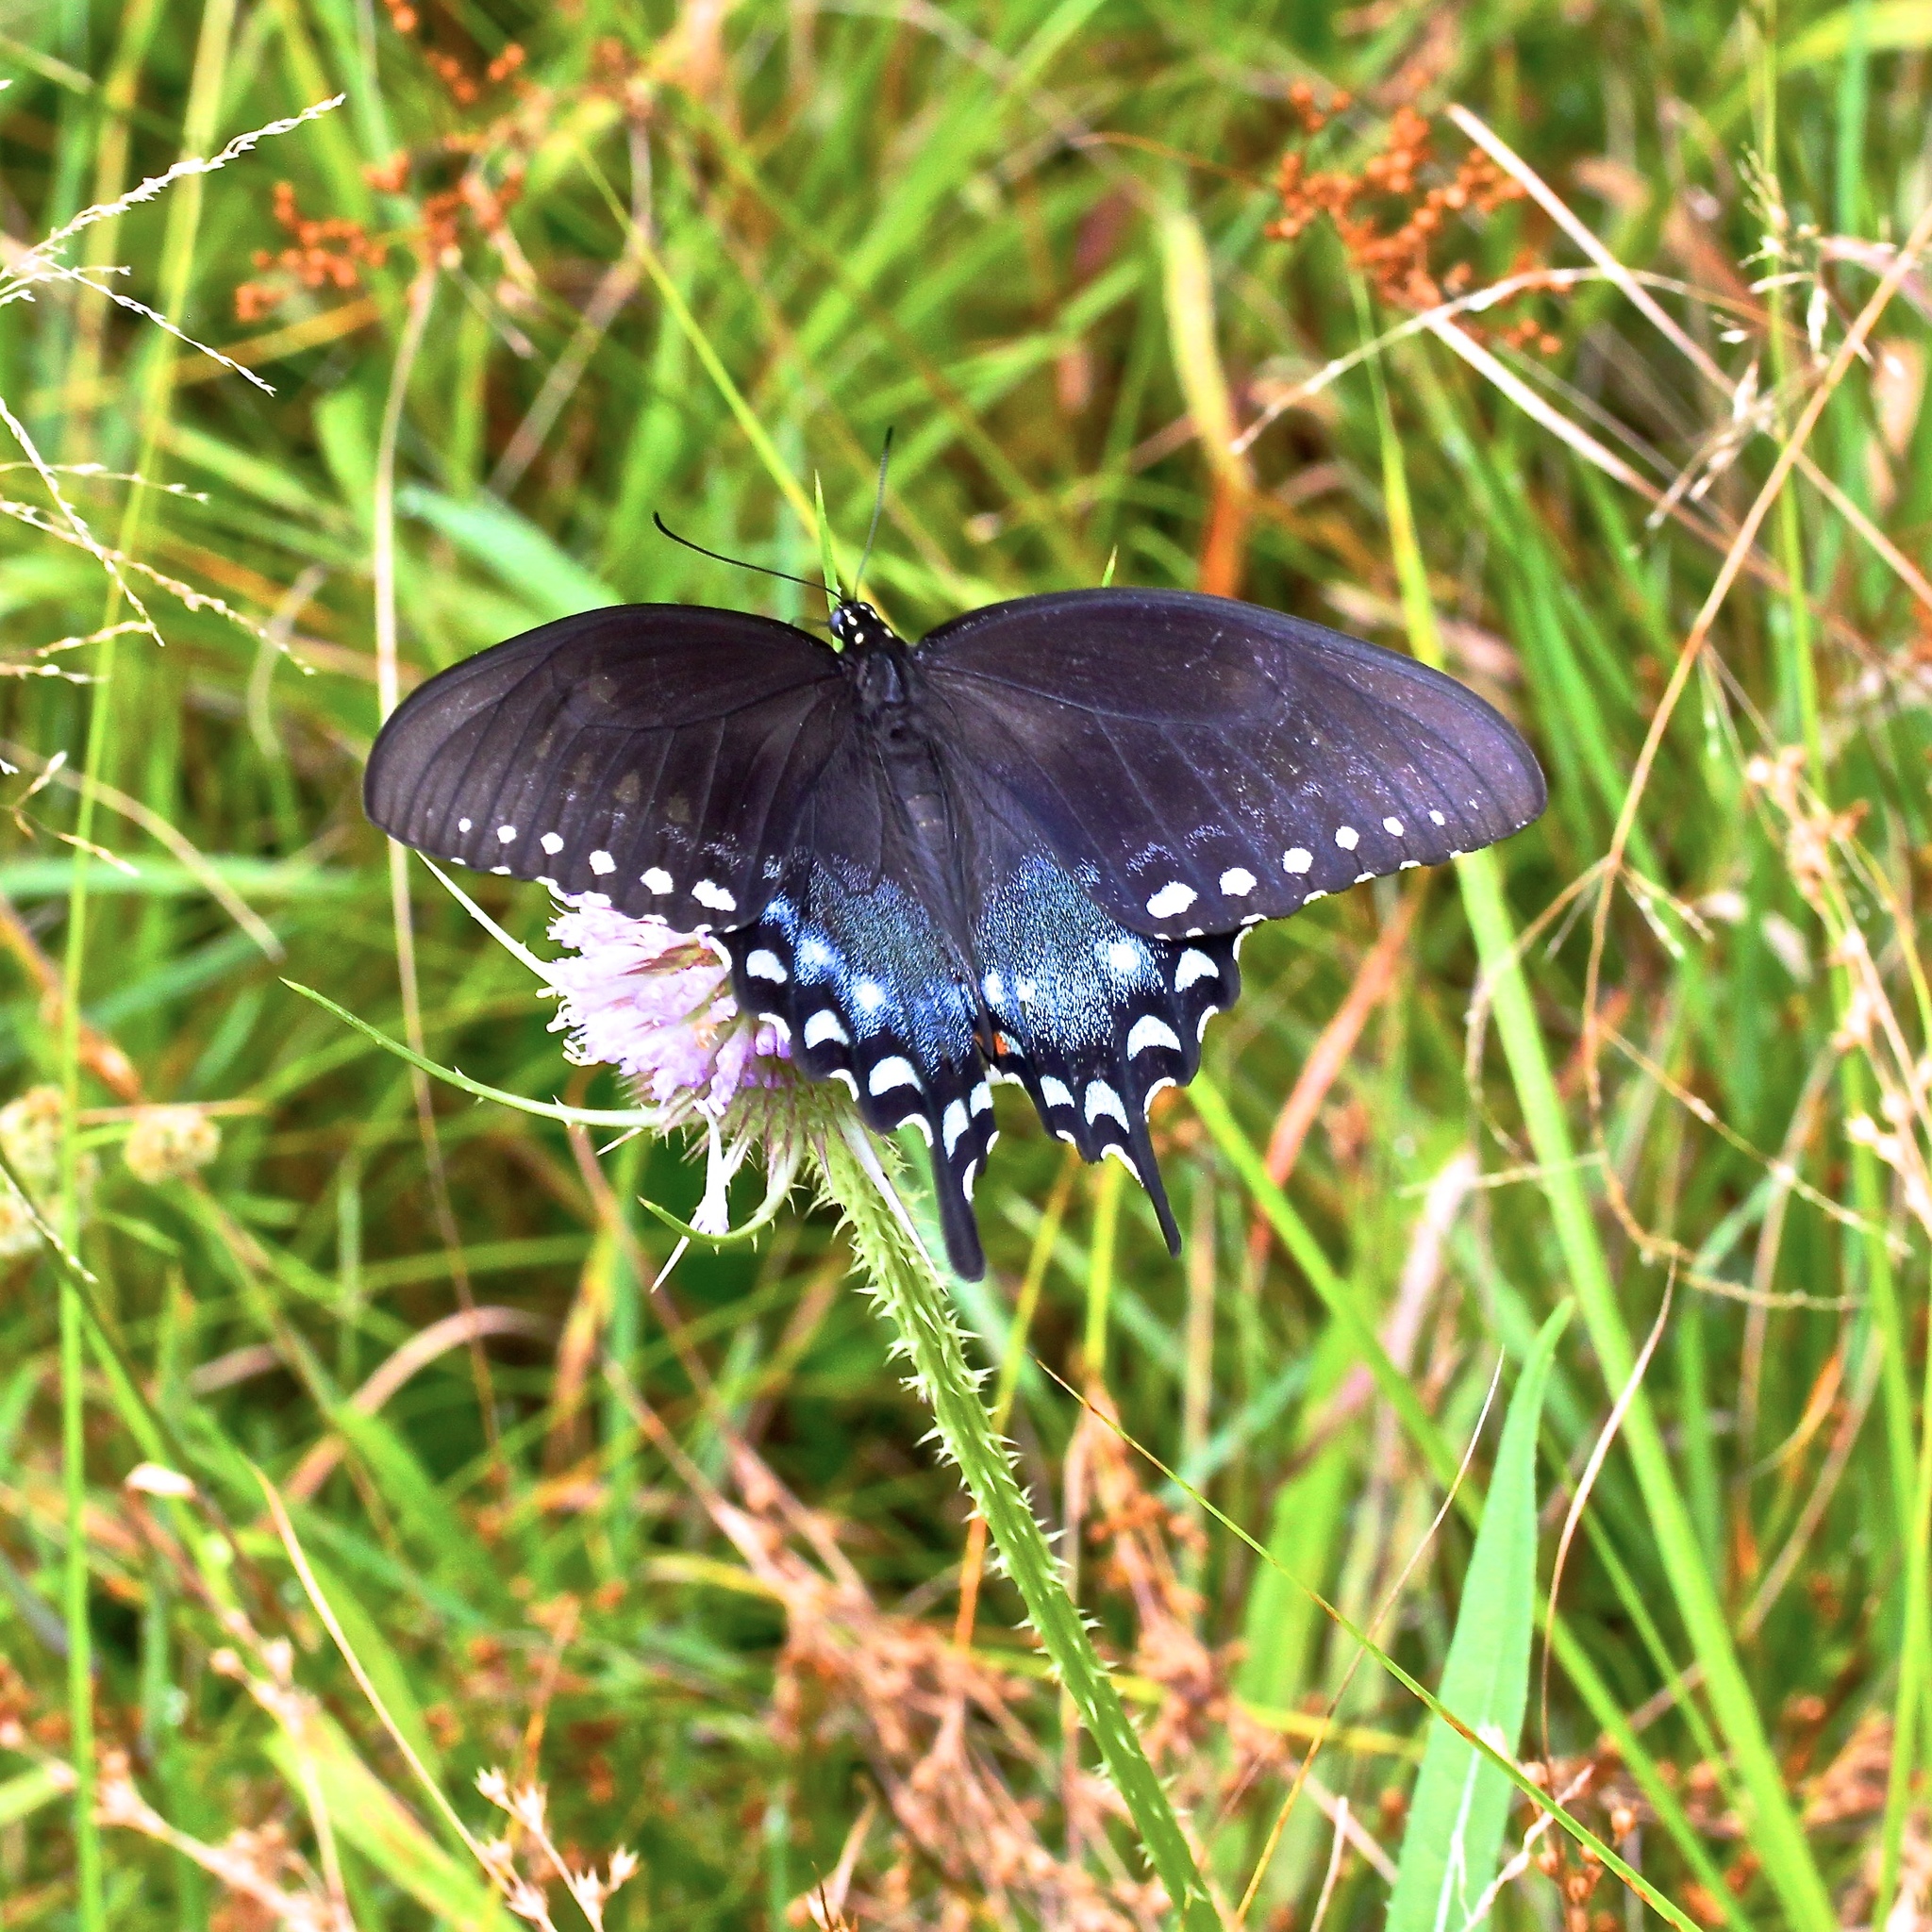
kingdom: Animalia
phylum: Arthropoda
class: Insecta
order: Lepidoptera
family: Papilionidae
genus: Papilio
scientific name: Papilio troilus
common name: Spicebush swallowtail
